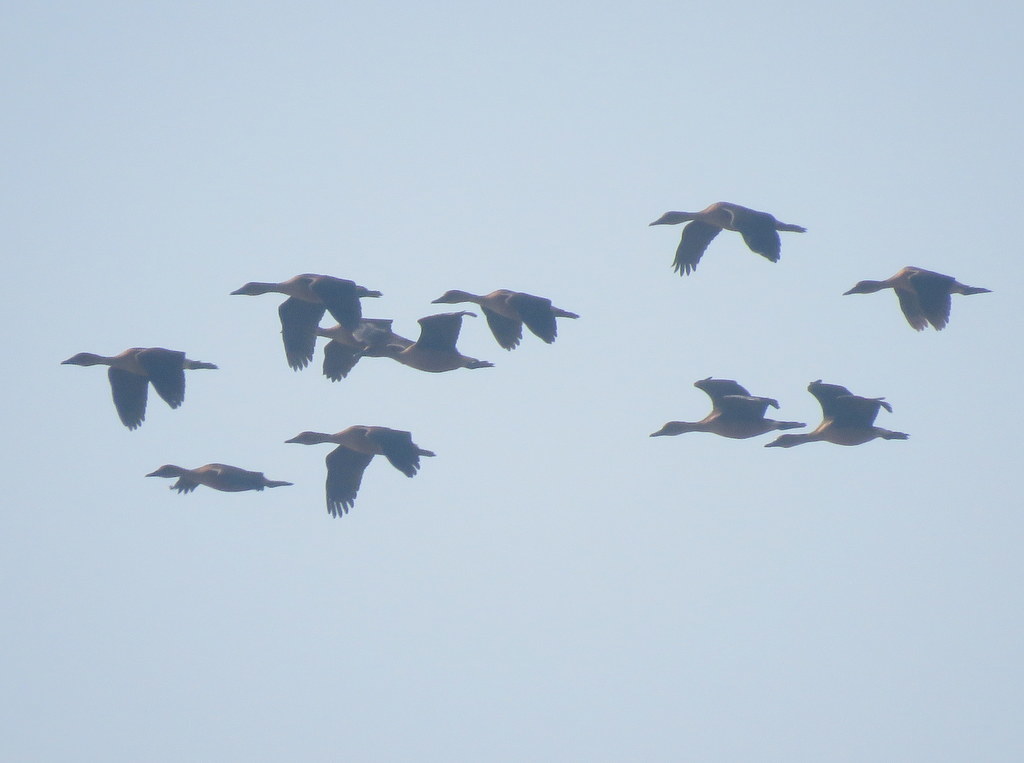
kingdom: Animalia
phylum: Chordata
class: Aves
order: Anseriformes
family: Anatidae
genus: Dendrocygna
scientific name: Dendrocygna bicolor
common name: Fulvous whistling duck
